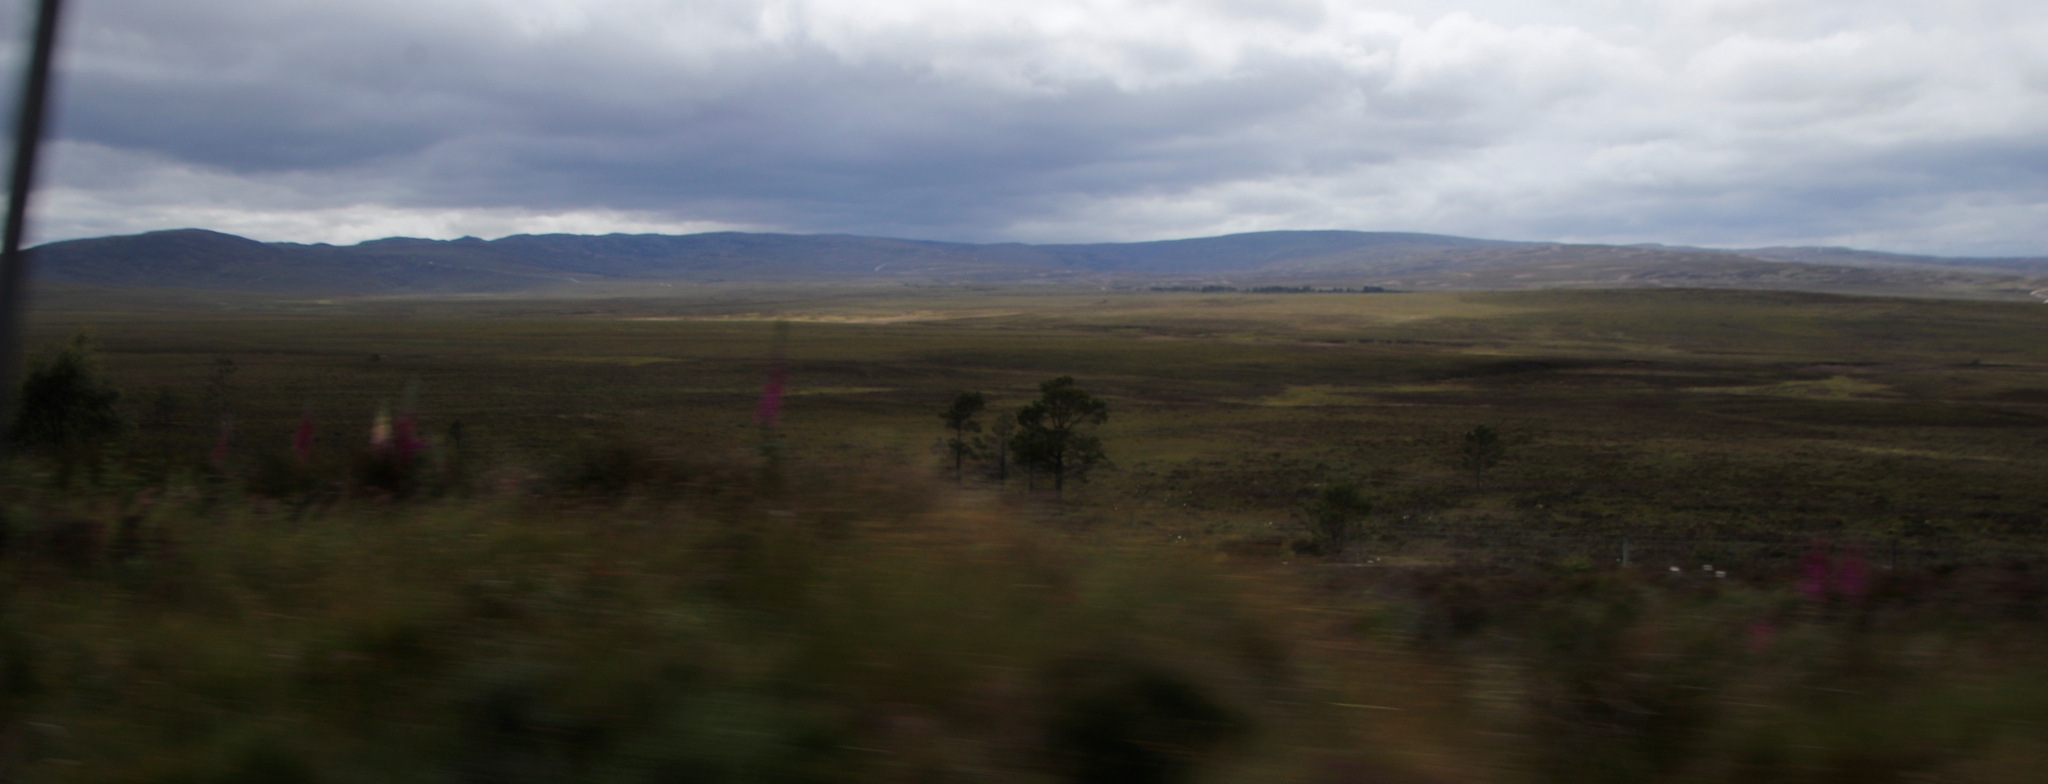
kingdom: Plantae
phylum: Tracheophyta
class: Magnoliopsida
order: Lamiales
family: Plantaginaceae
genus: Digitalis
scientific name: Digitalis purpurea
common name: Foxglove
